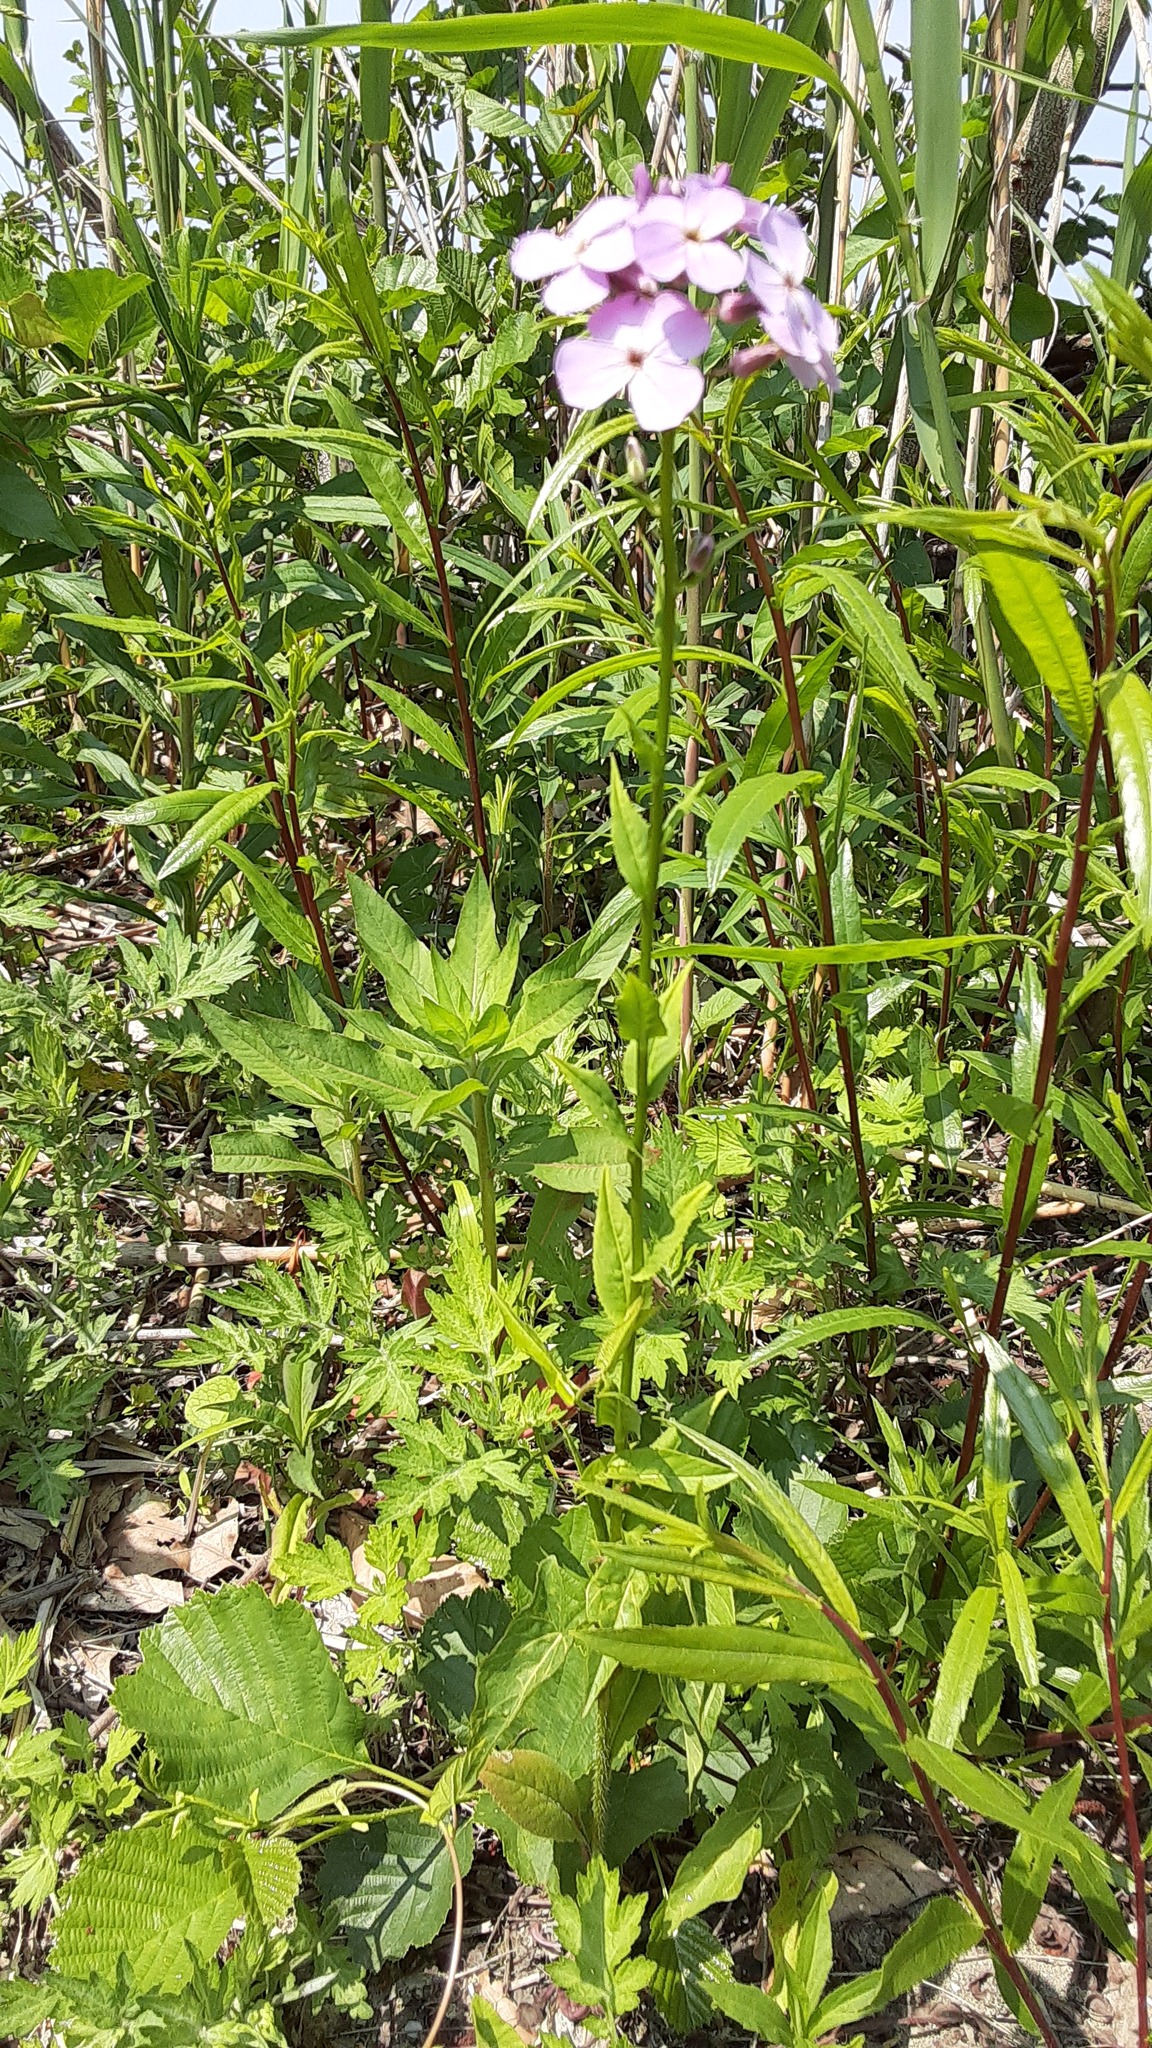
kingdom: Plantae
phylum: Tracheophyta
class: Magnoliopsida
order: Brassicales
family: Brassicaceae
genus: Hesperis
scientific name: Hesperis matronalis
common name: Dame's-violet
